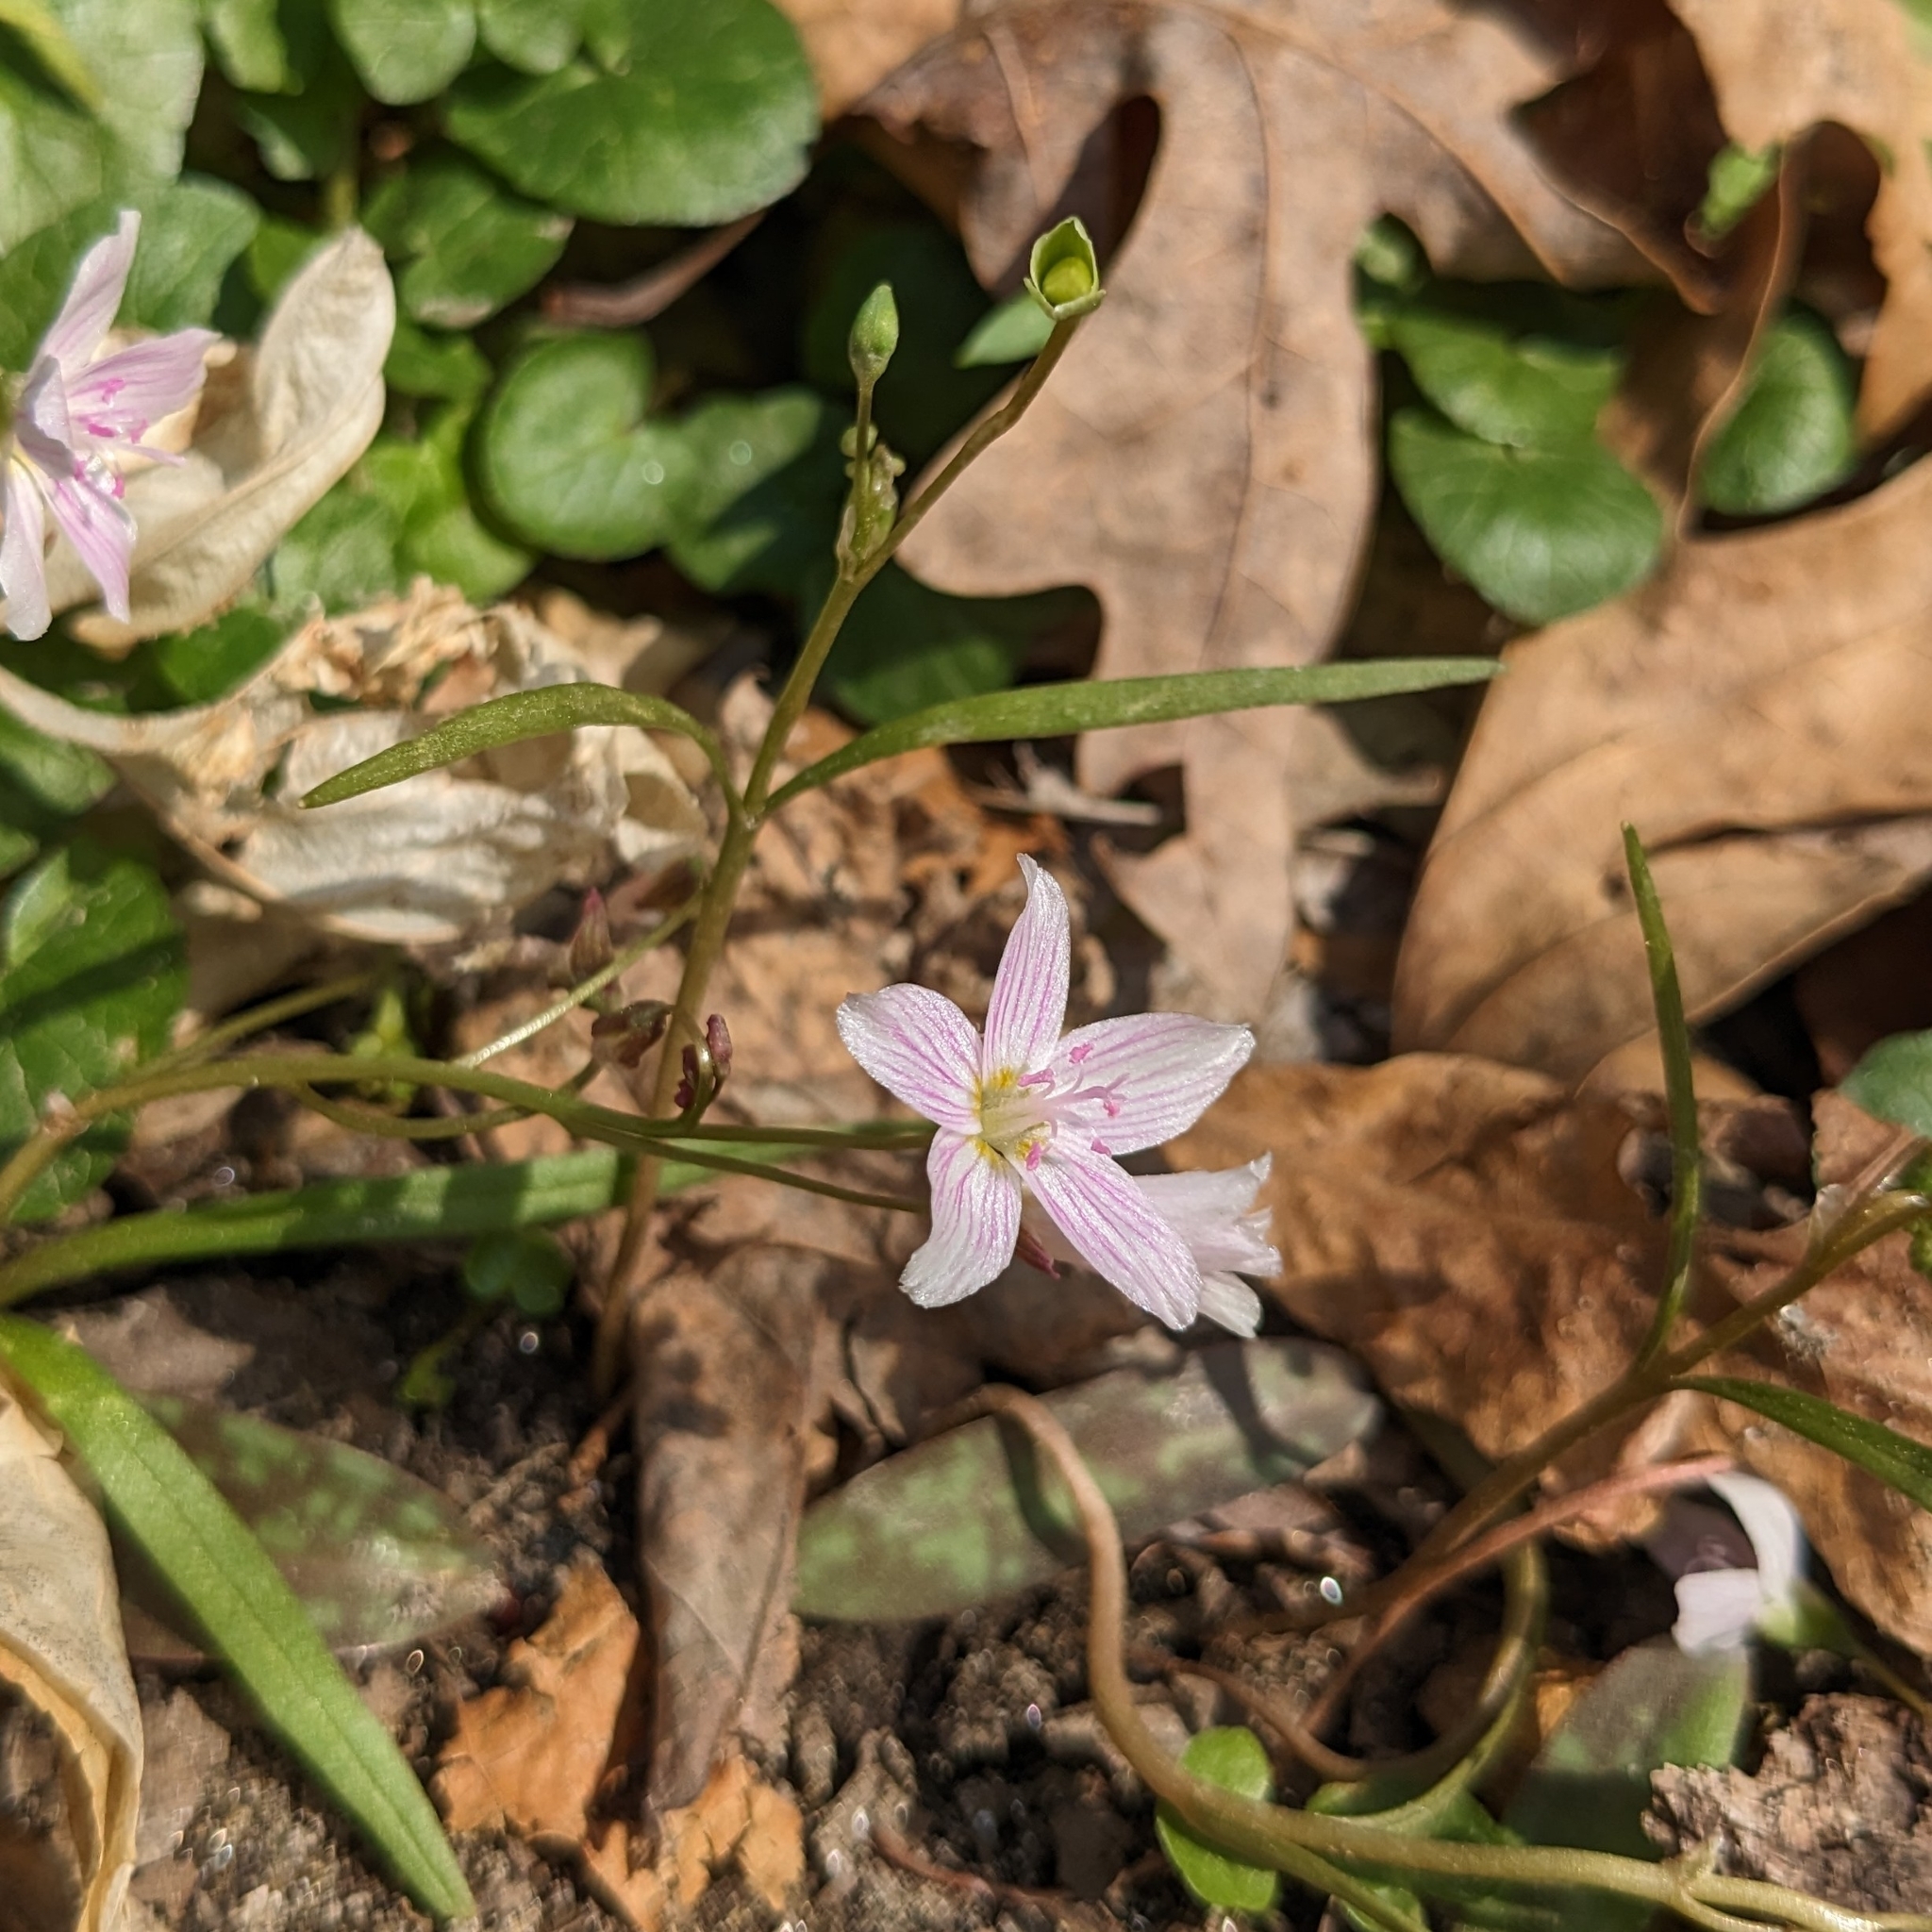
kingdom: Plantae
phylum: Tracheophyta
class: Magnoliopsida
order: Caryophyllales
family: Montiaceae
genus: Claytonia
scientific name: Claytonia virginica
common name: Virginia springbeauty
